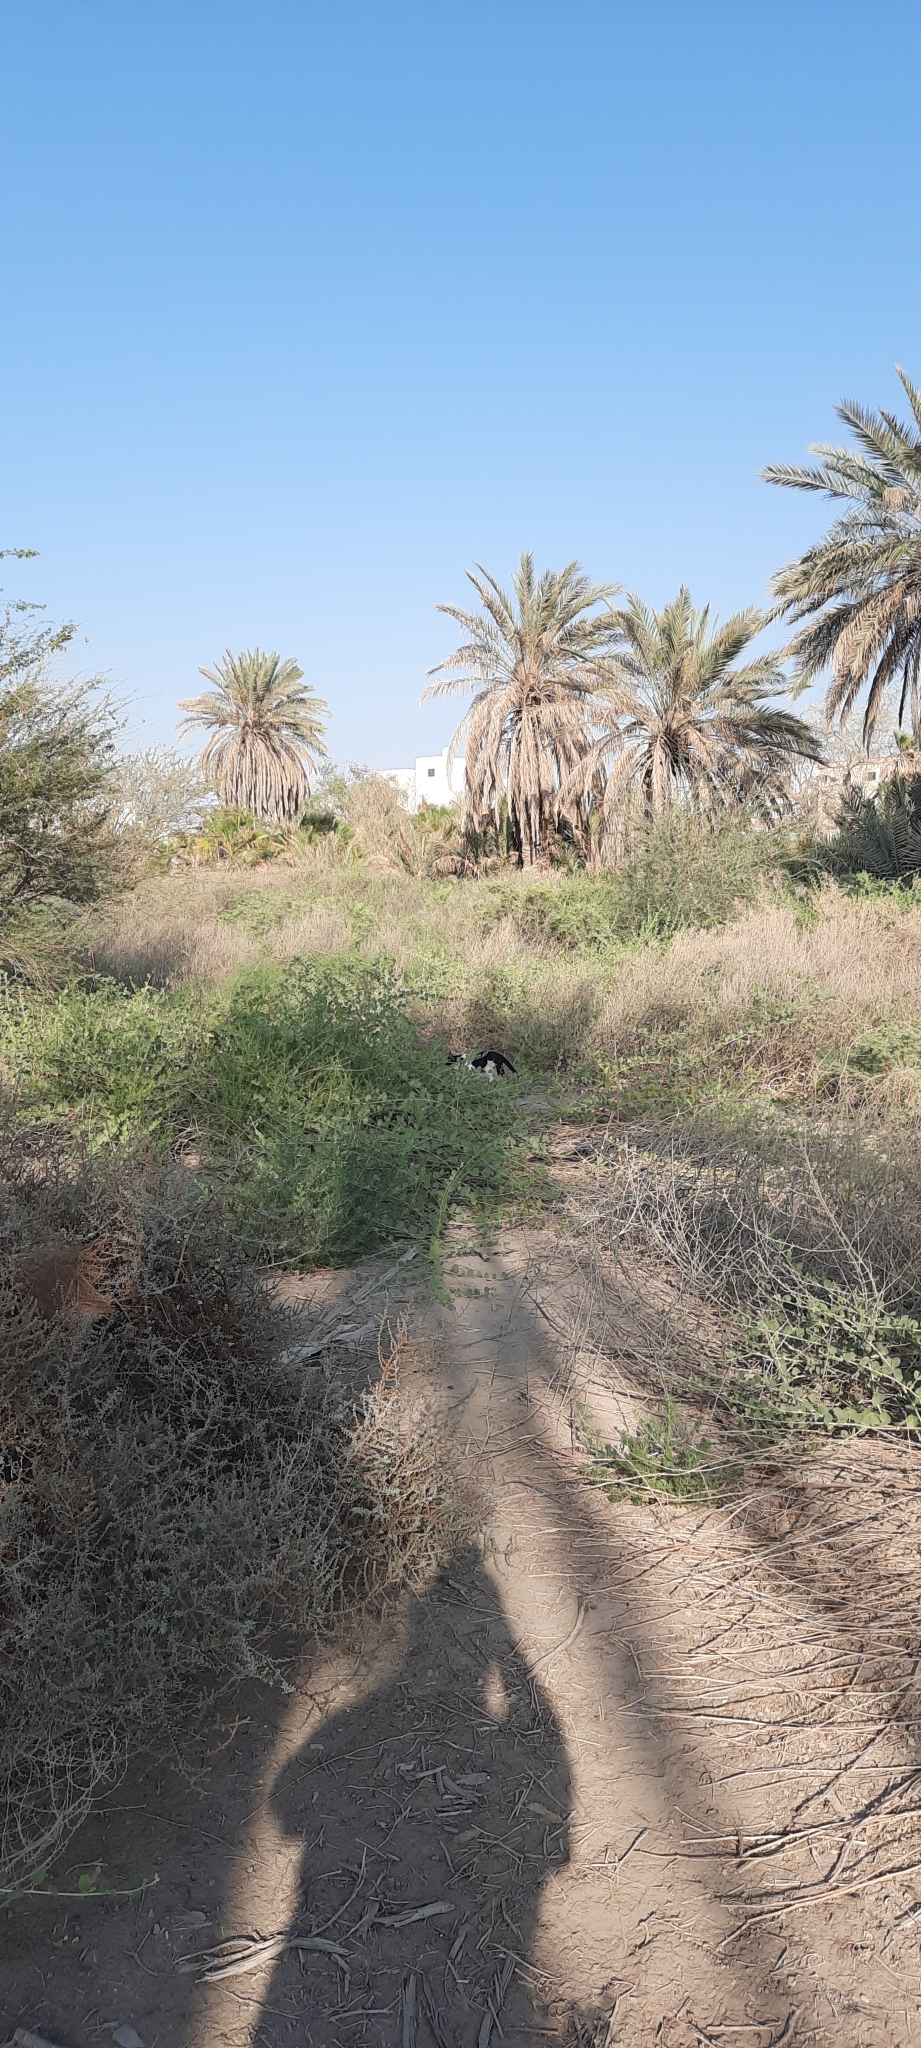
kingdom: Animalia
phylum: Chordata
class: Mammalia
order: Carnivora
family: Felidae
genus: Felis
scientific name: Felis catus
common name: Domestic cat
